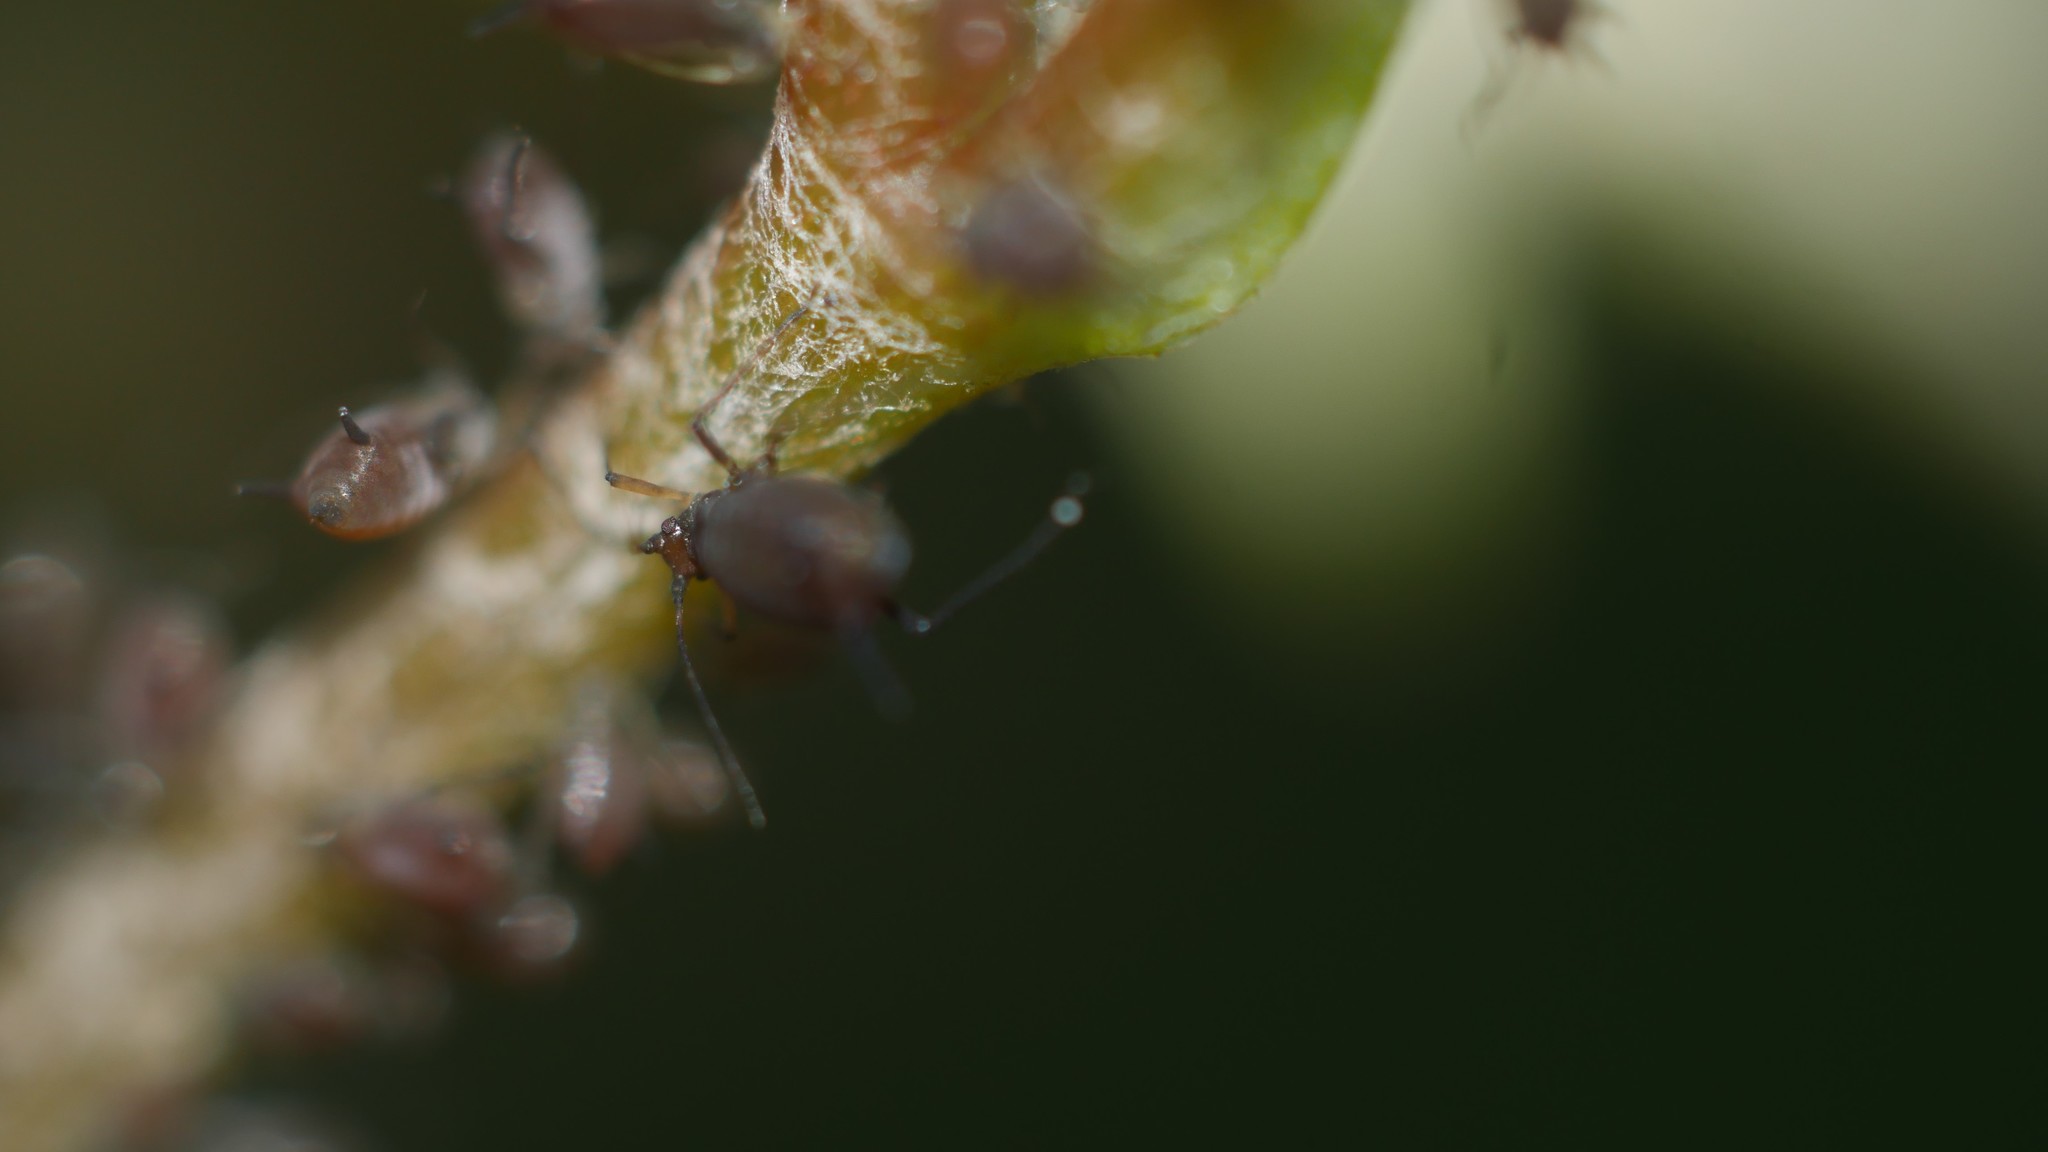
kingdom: Animalia
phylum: Arthropoda
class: Insecta
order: Hemiptera
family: Aphididae
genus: Aphis
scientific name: Aphis illinoisensis
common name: Grapevine aphid
